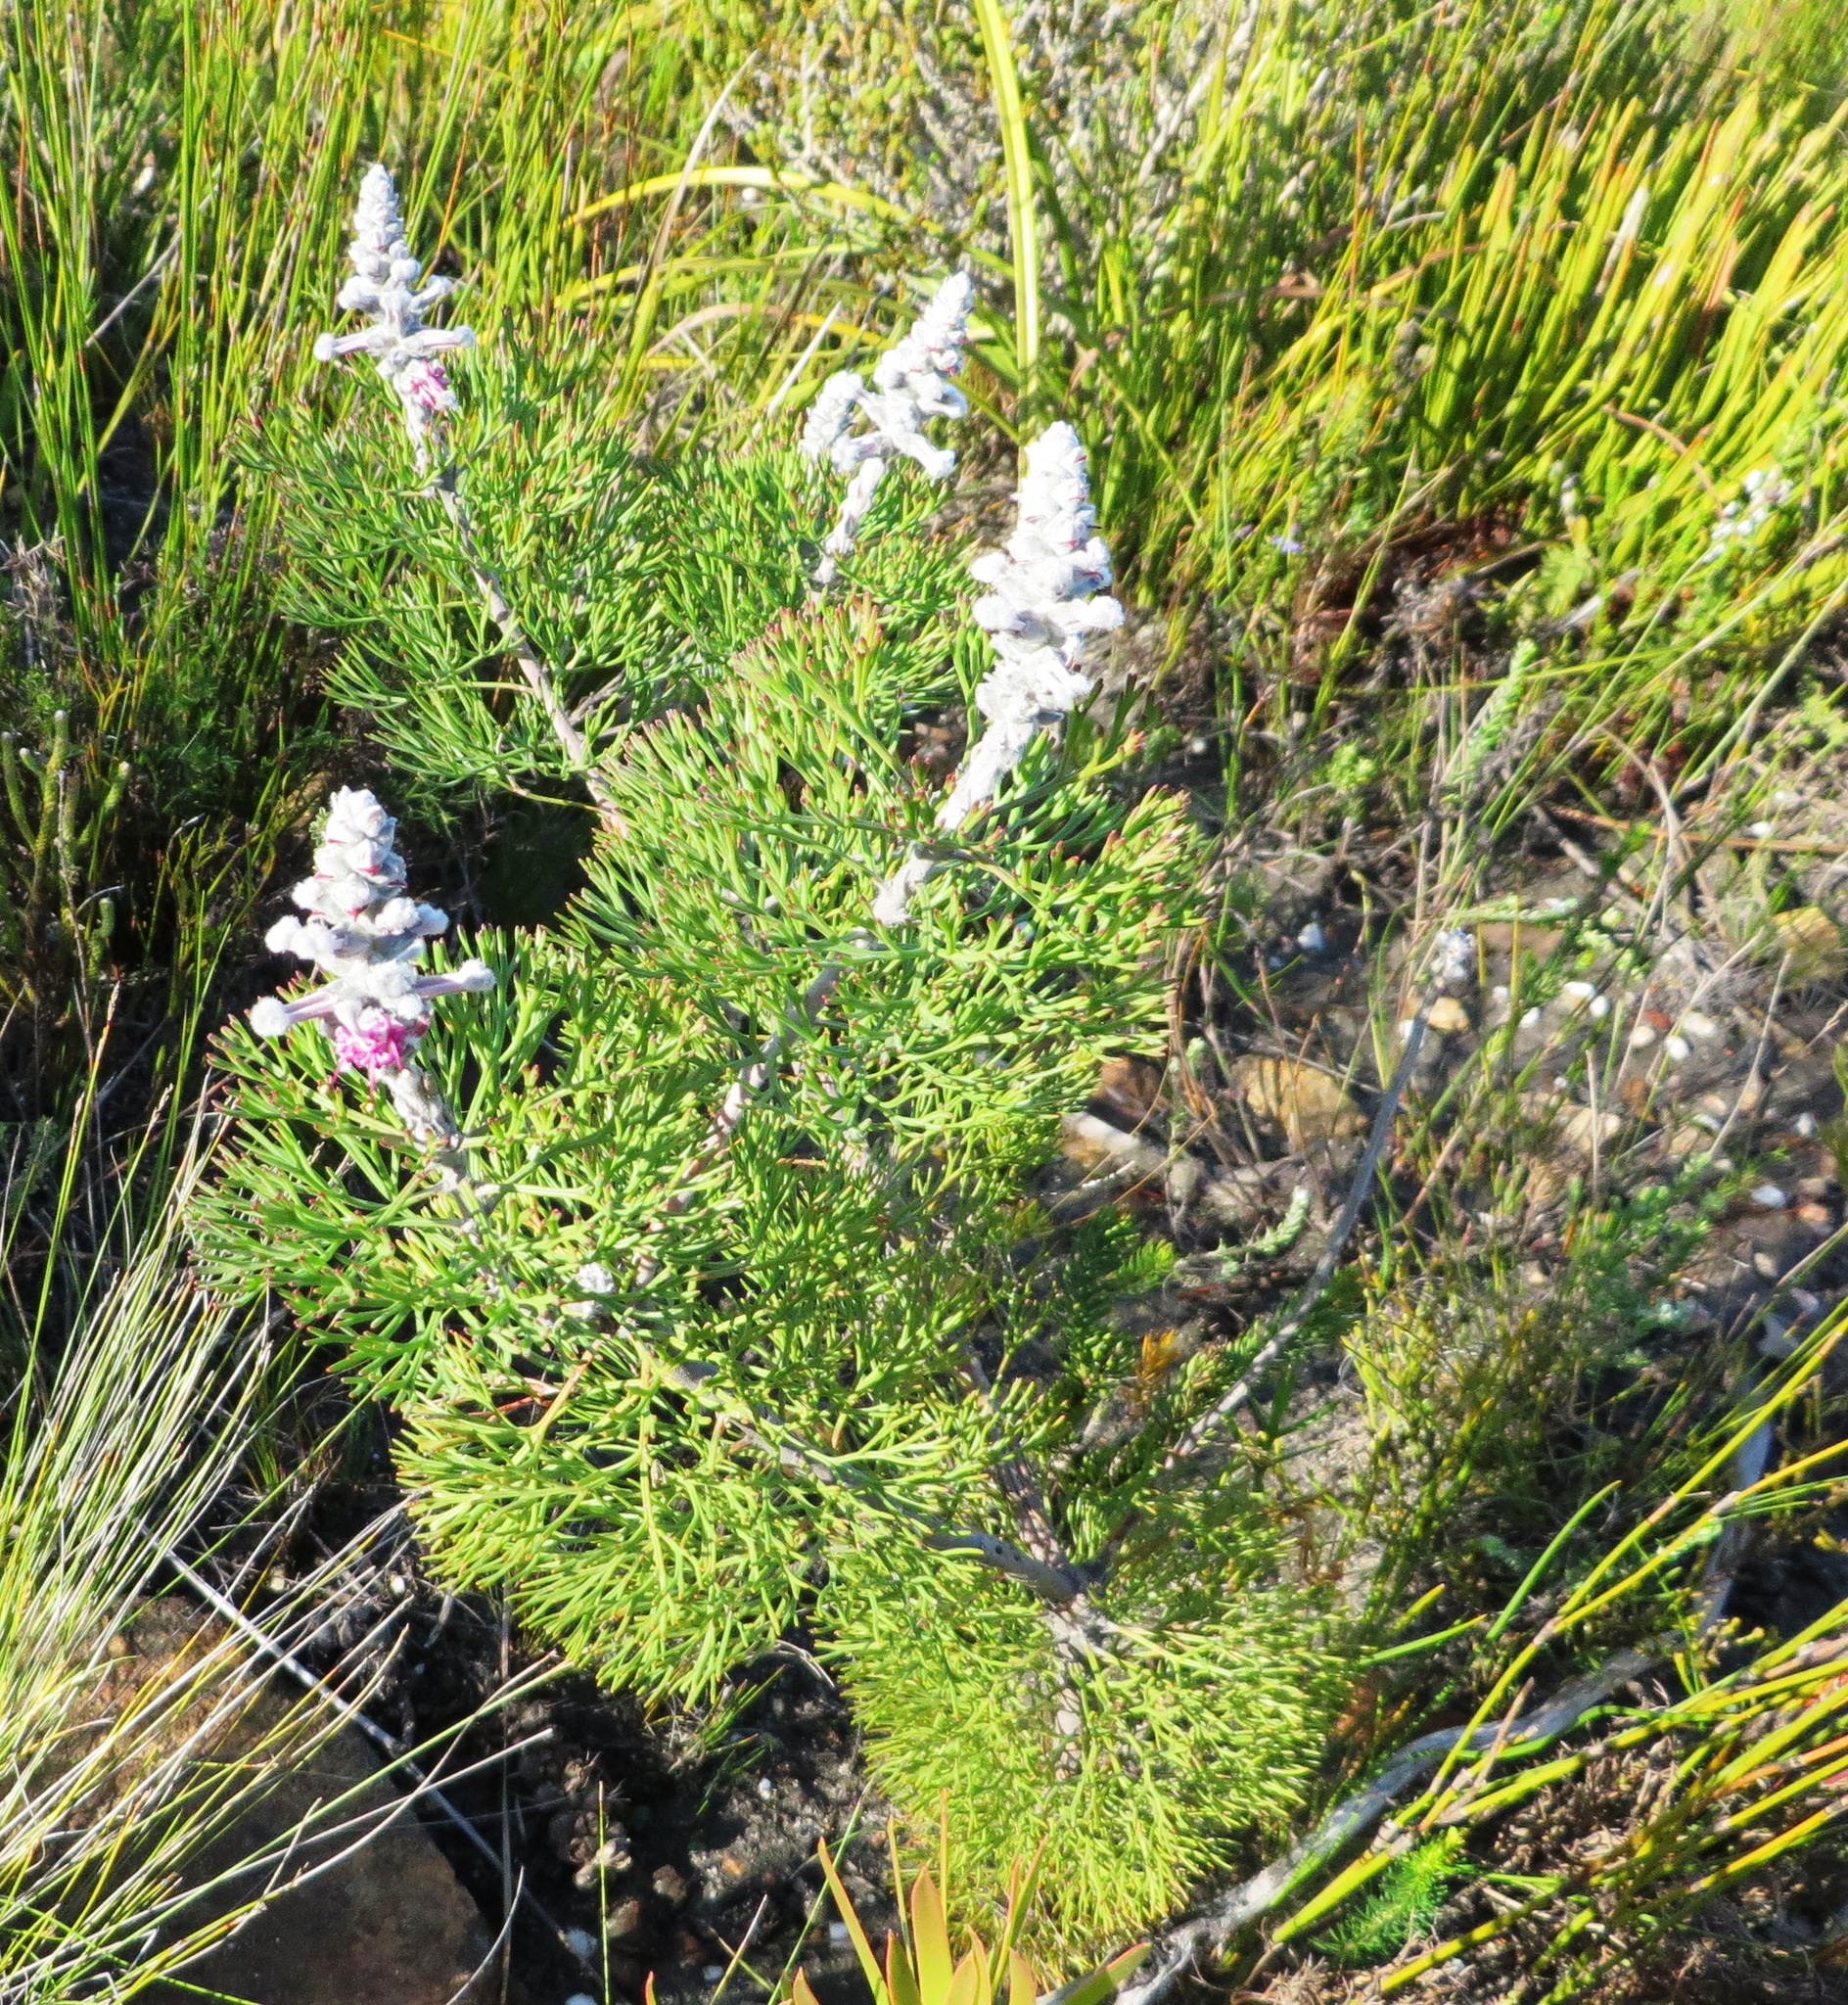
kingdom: Plantae
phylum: Tracheophyta
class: Magnoliopsida
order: Proteales
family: Proteaceae
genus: Paranomus
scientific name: Paranomus bolusii
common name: Overberg sceptre
